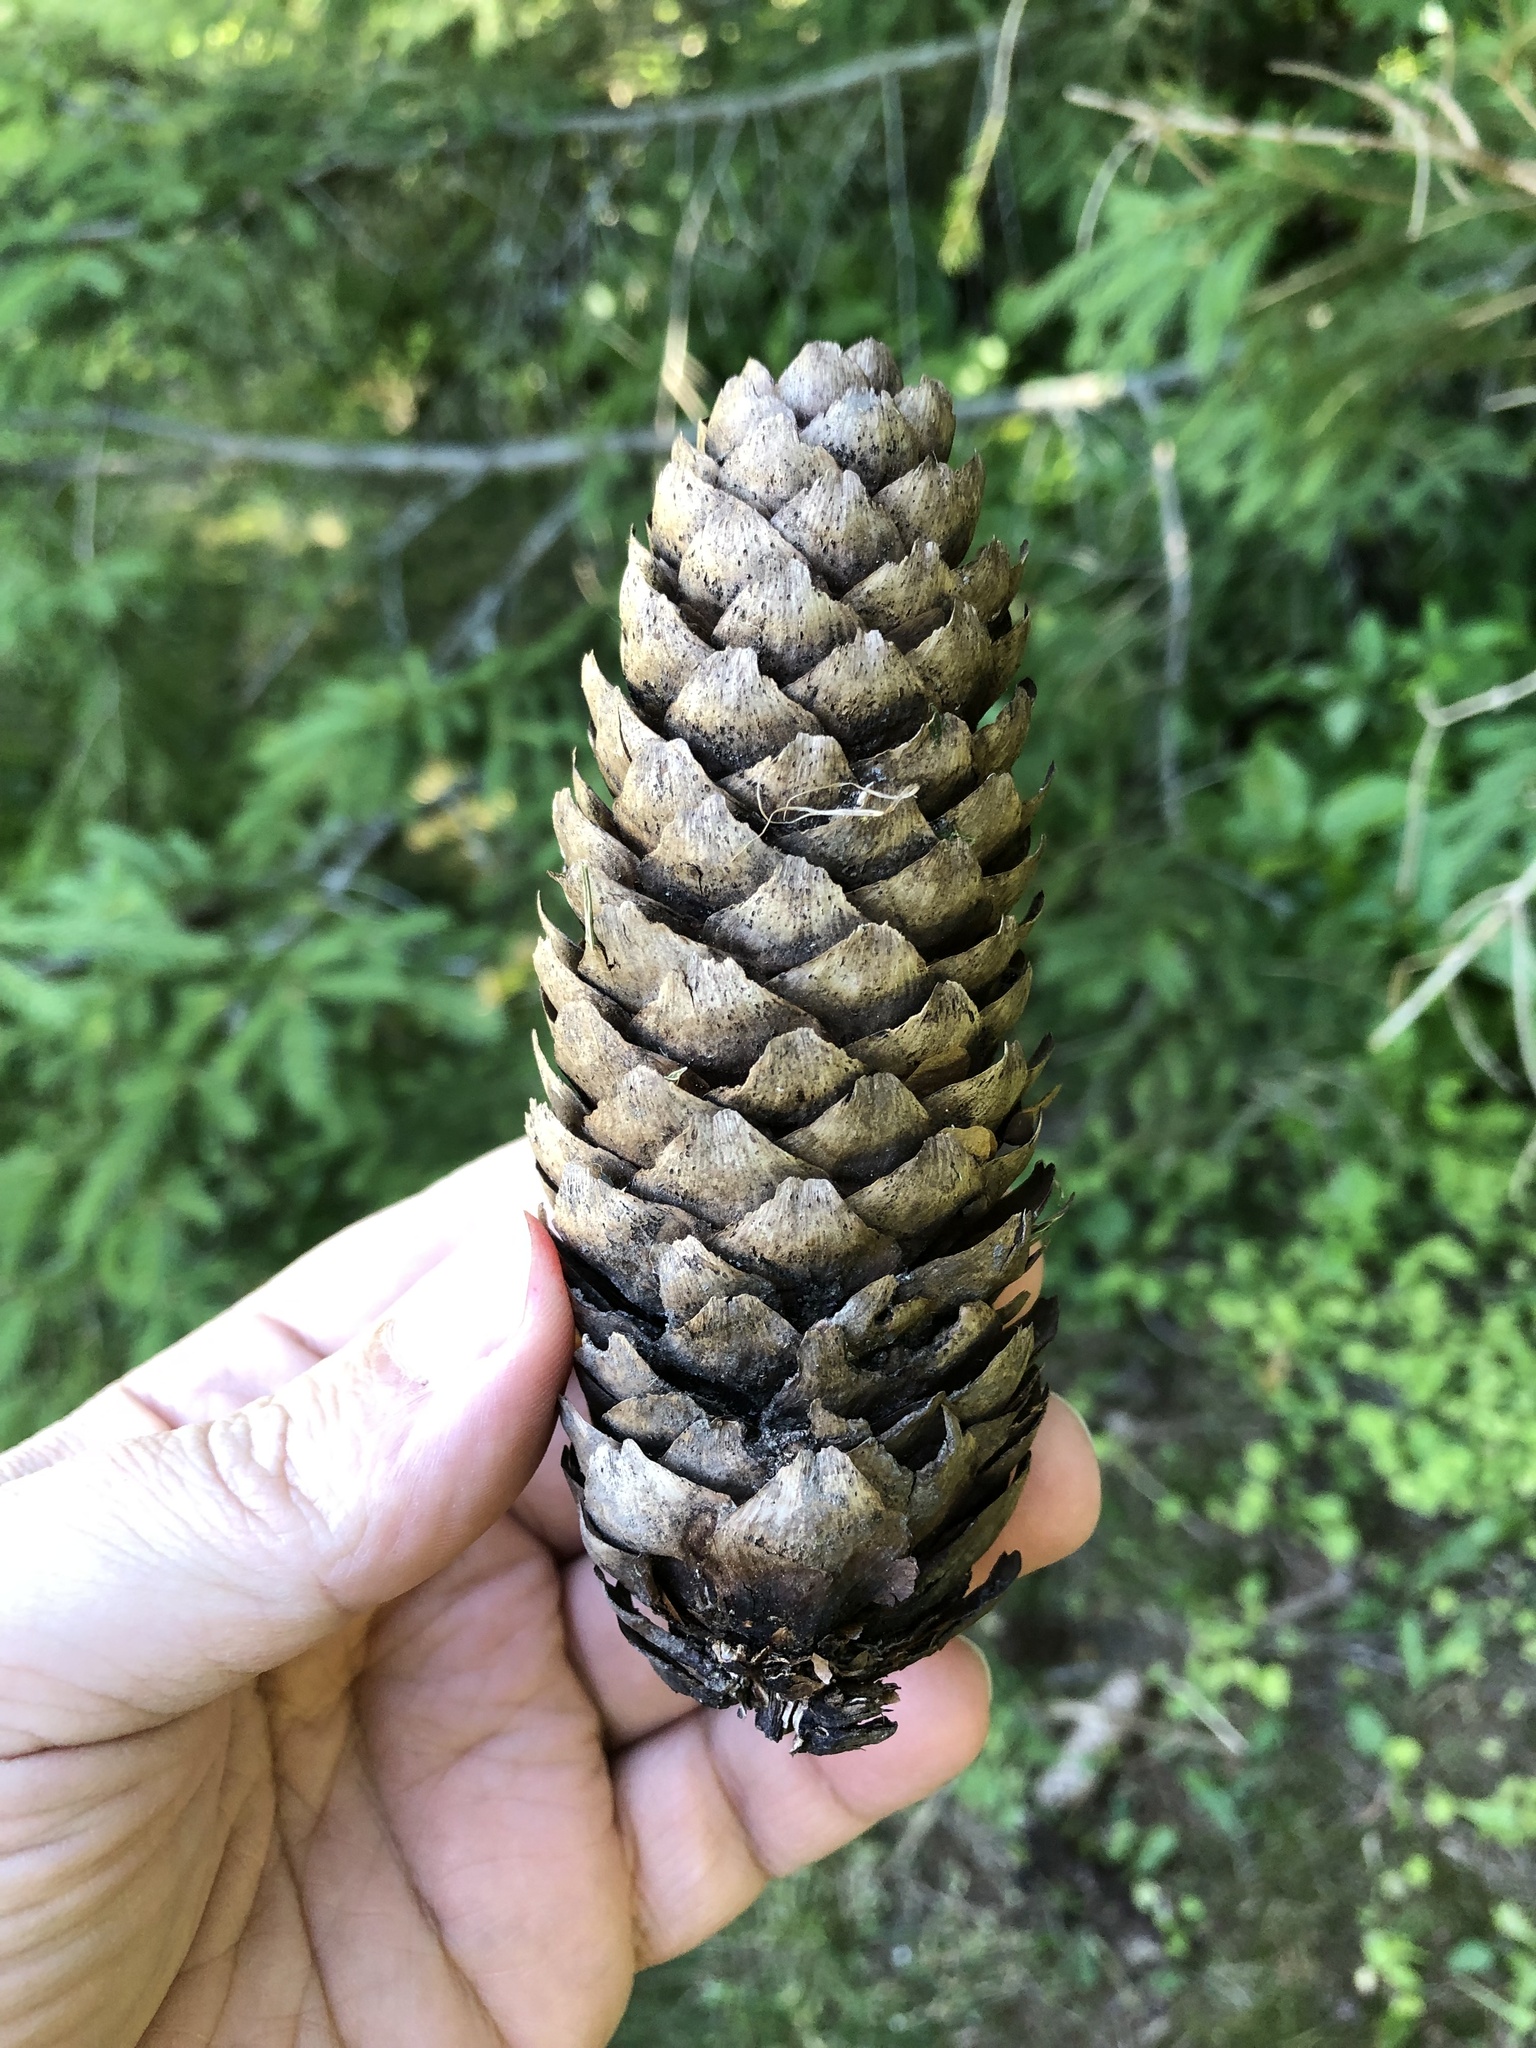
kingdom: Plantae
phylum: Tracheophyta
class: Pinopsida
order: Pinales
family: Pinaceae
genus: Picea
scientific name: Picea abies
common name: Norway spruce
